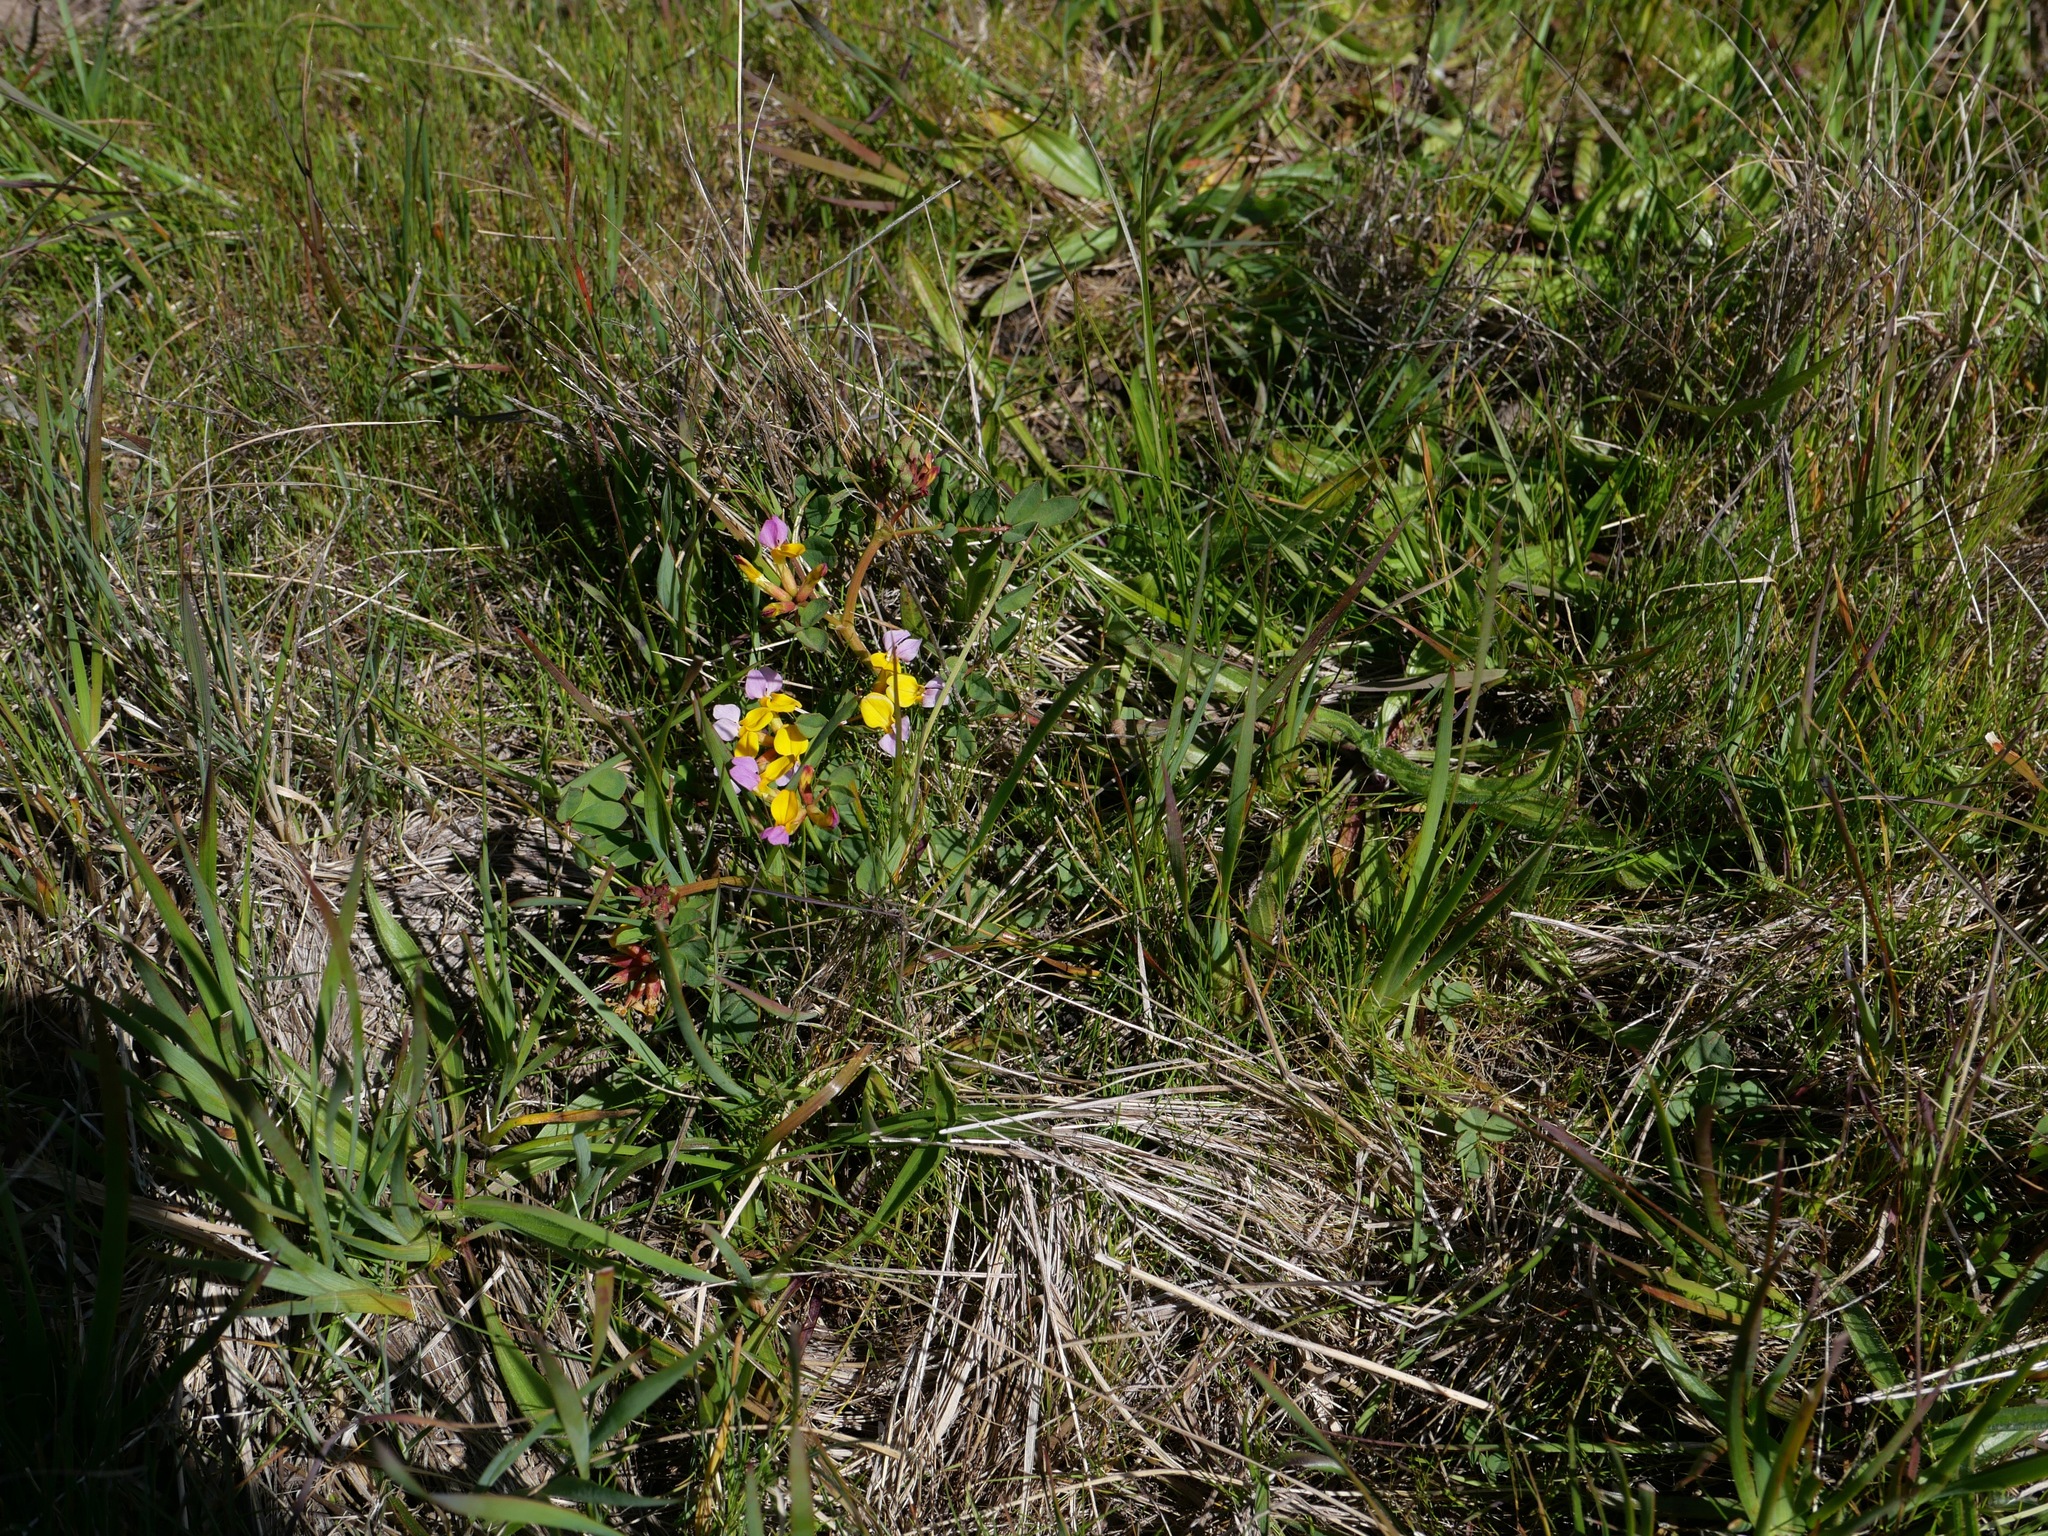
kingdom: Plantae
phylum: Tracheophyta
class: Magnoliopsida
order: Fabales
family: Fabaceae
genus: Hosackia
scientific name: Hosackia gracilis
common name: Seaside bird's-foot lotus
